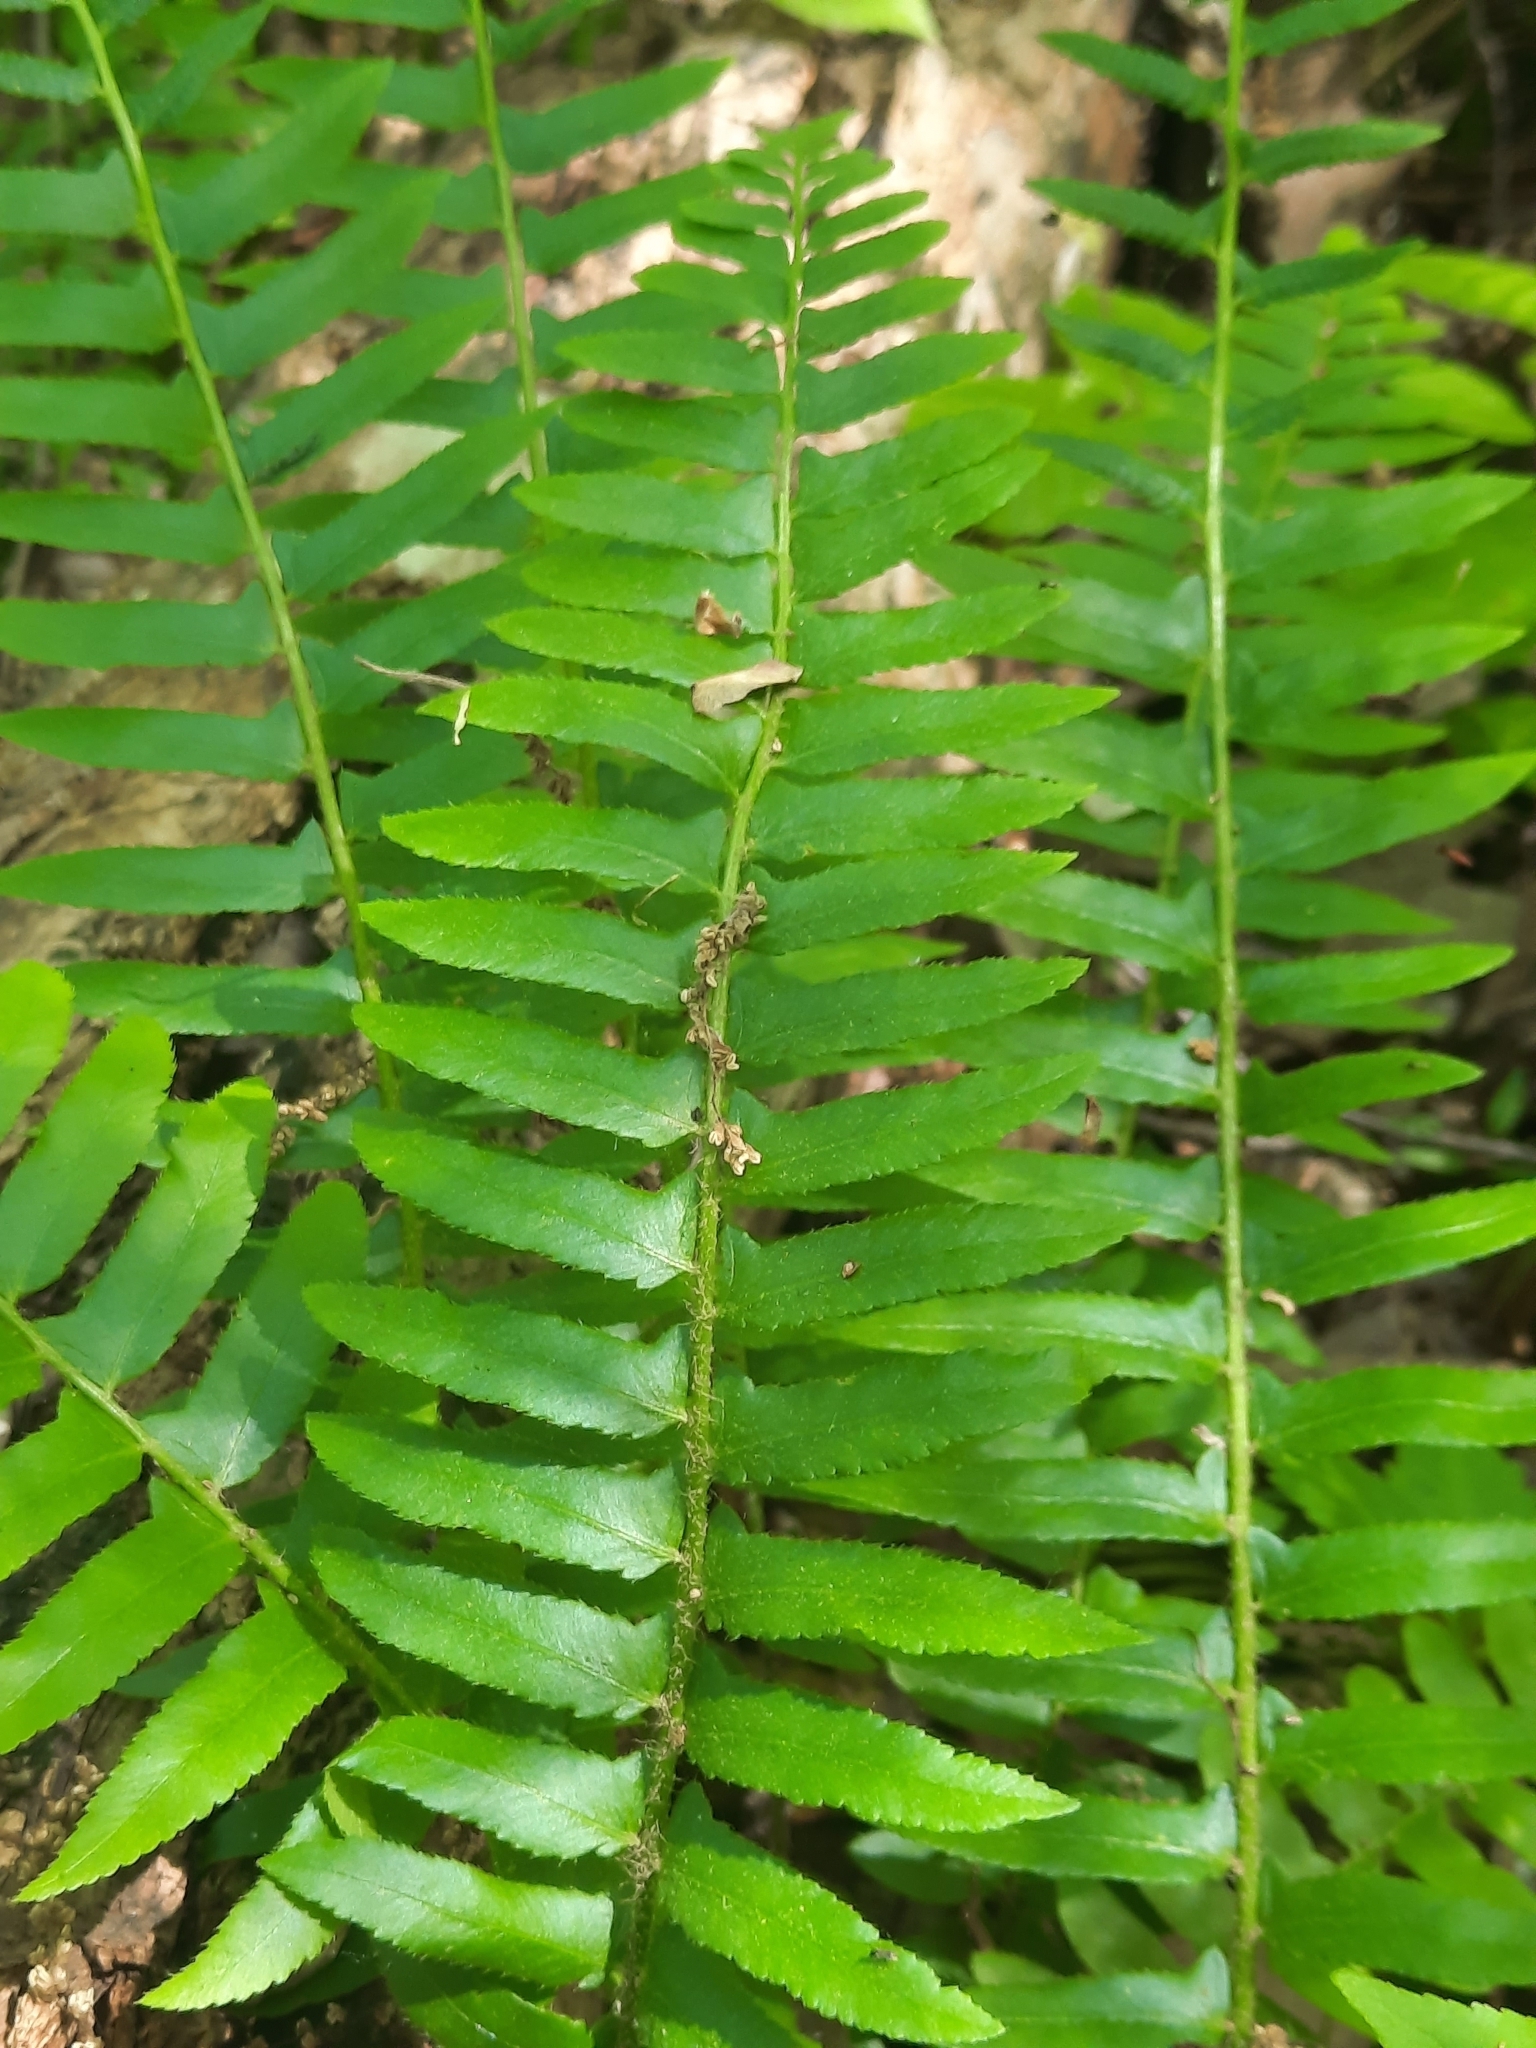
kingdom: Plantae
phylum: Tracheophyta
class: Polypodiopsida
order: Polypodiales
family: Dryopteridaceae
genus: Polystichum
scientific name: Polystichum acrostichoides
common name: Christmas fern
